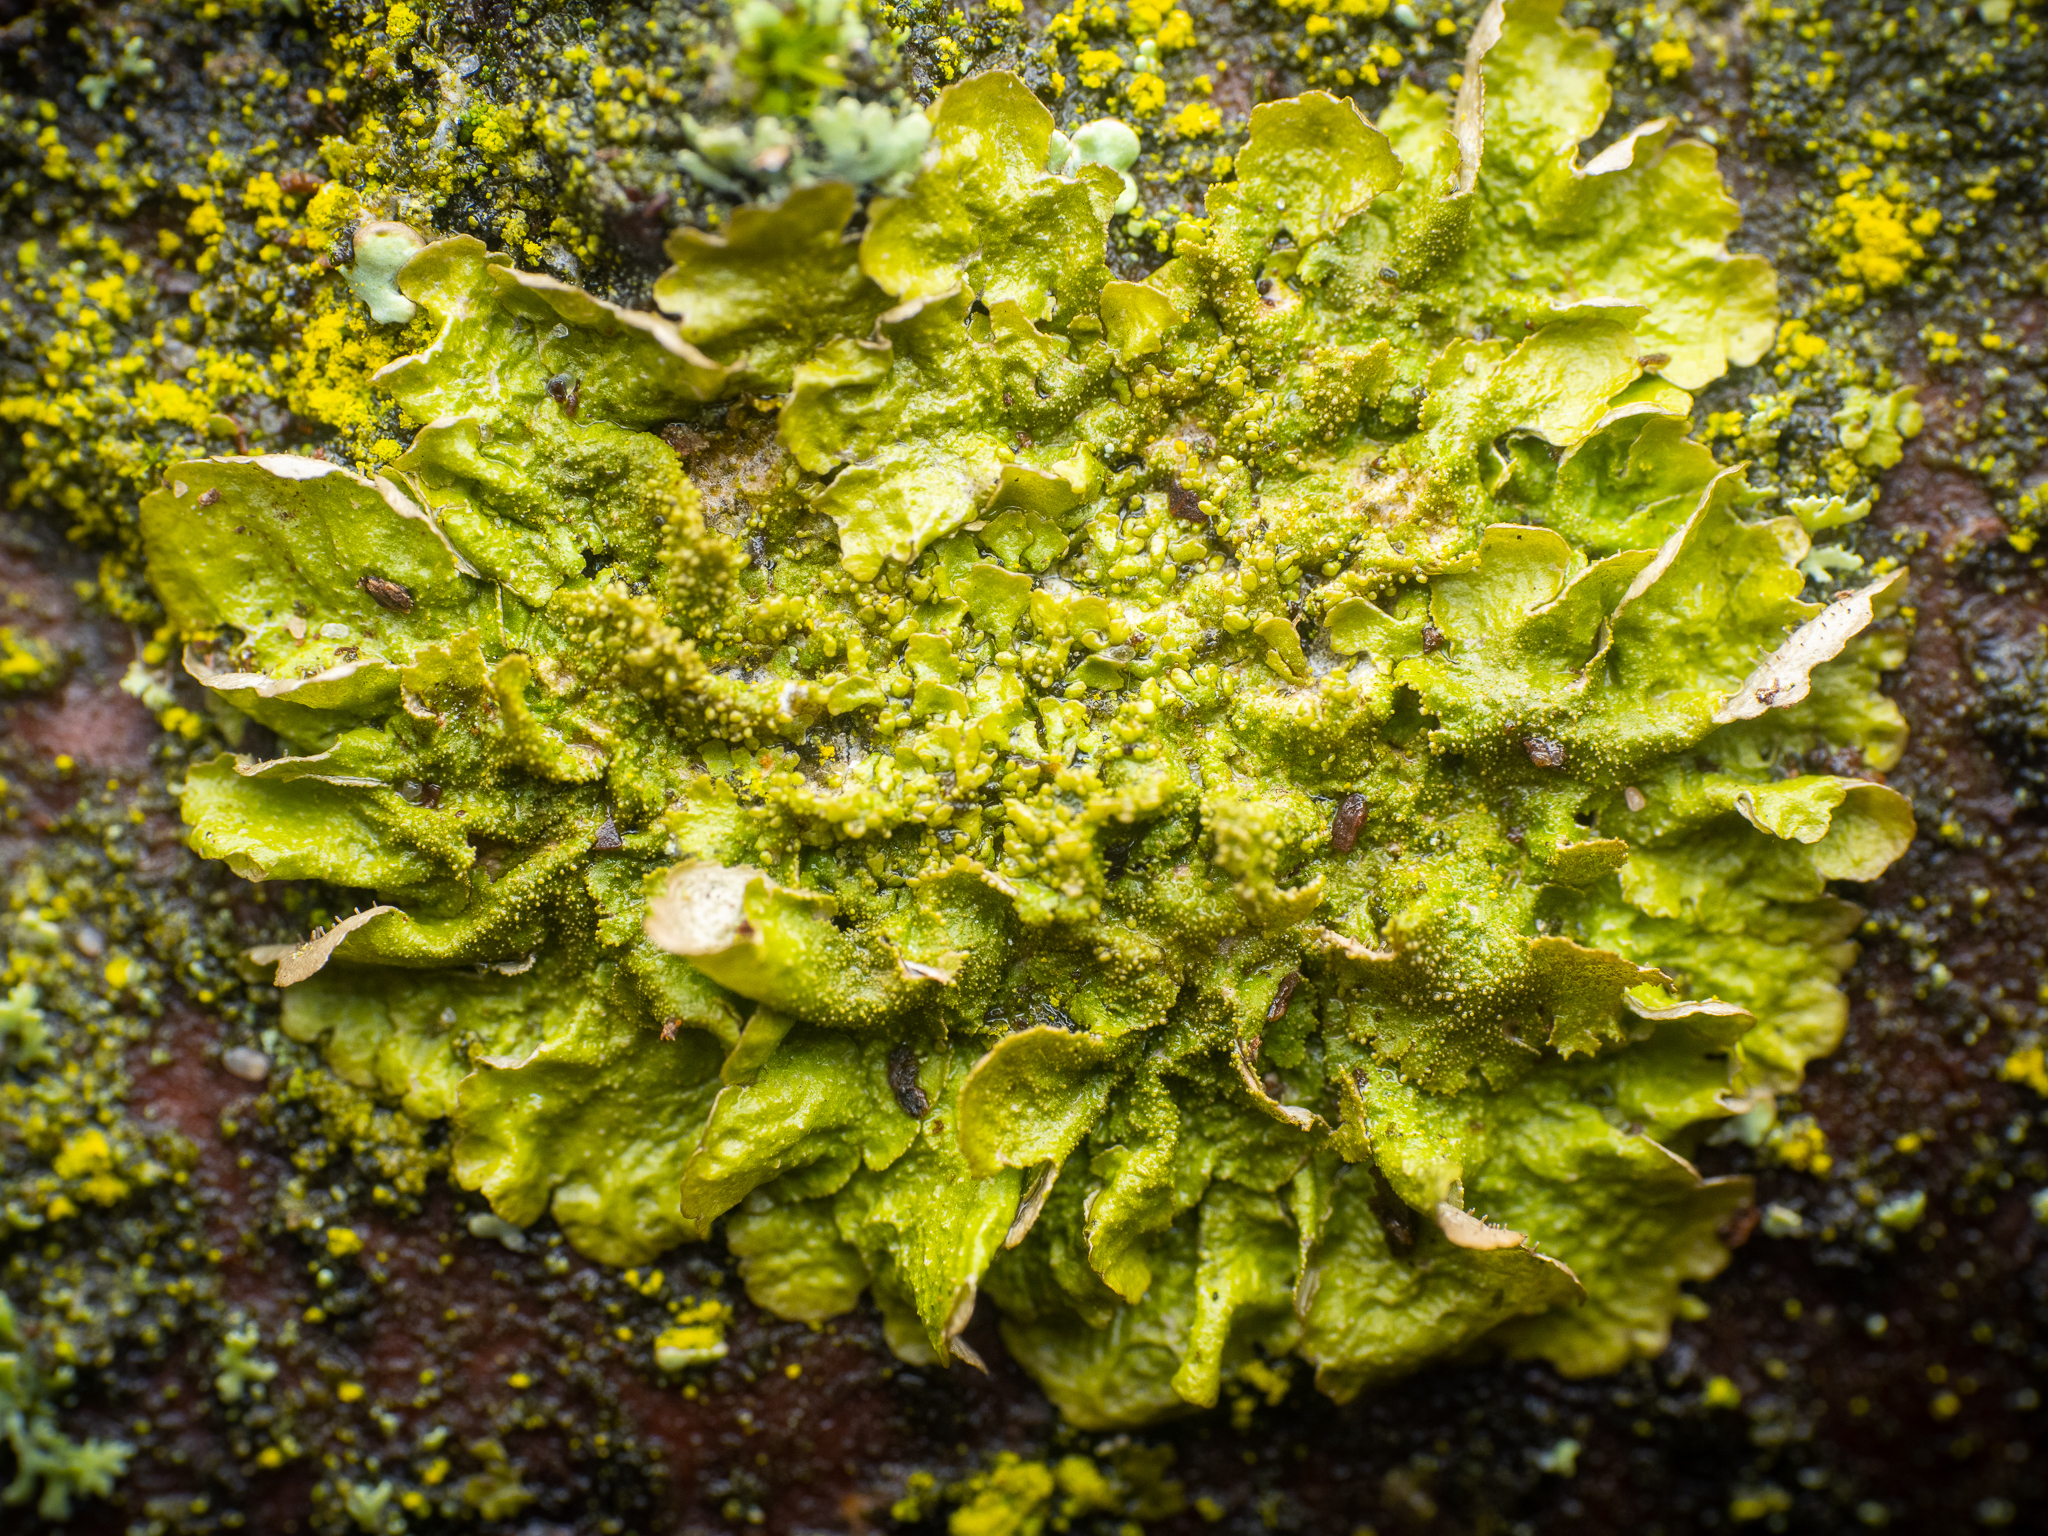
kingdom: Fungi
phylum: Ascomycota
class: Lecanoromycetes
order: Lecanorales
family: Parmeliaceae
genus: Melanohalea
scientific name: Melanohalea exasperatula
